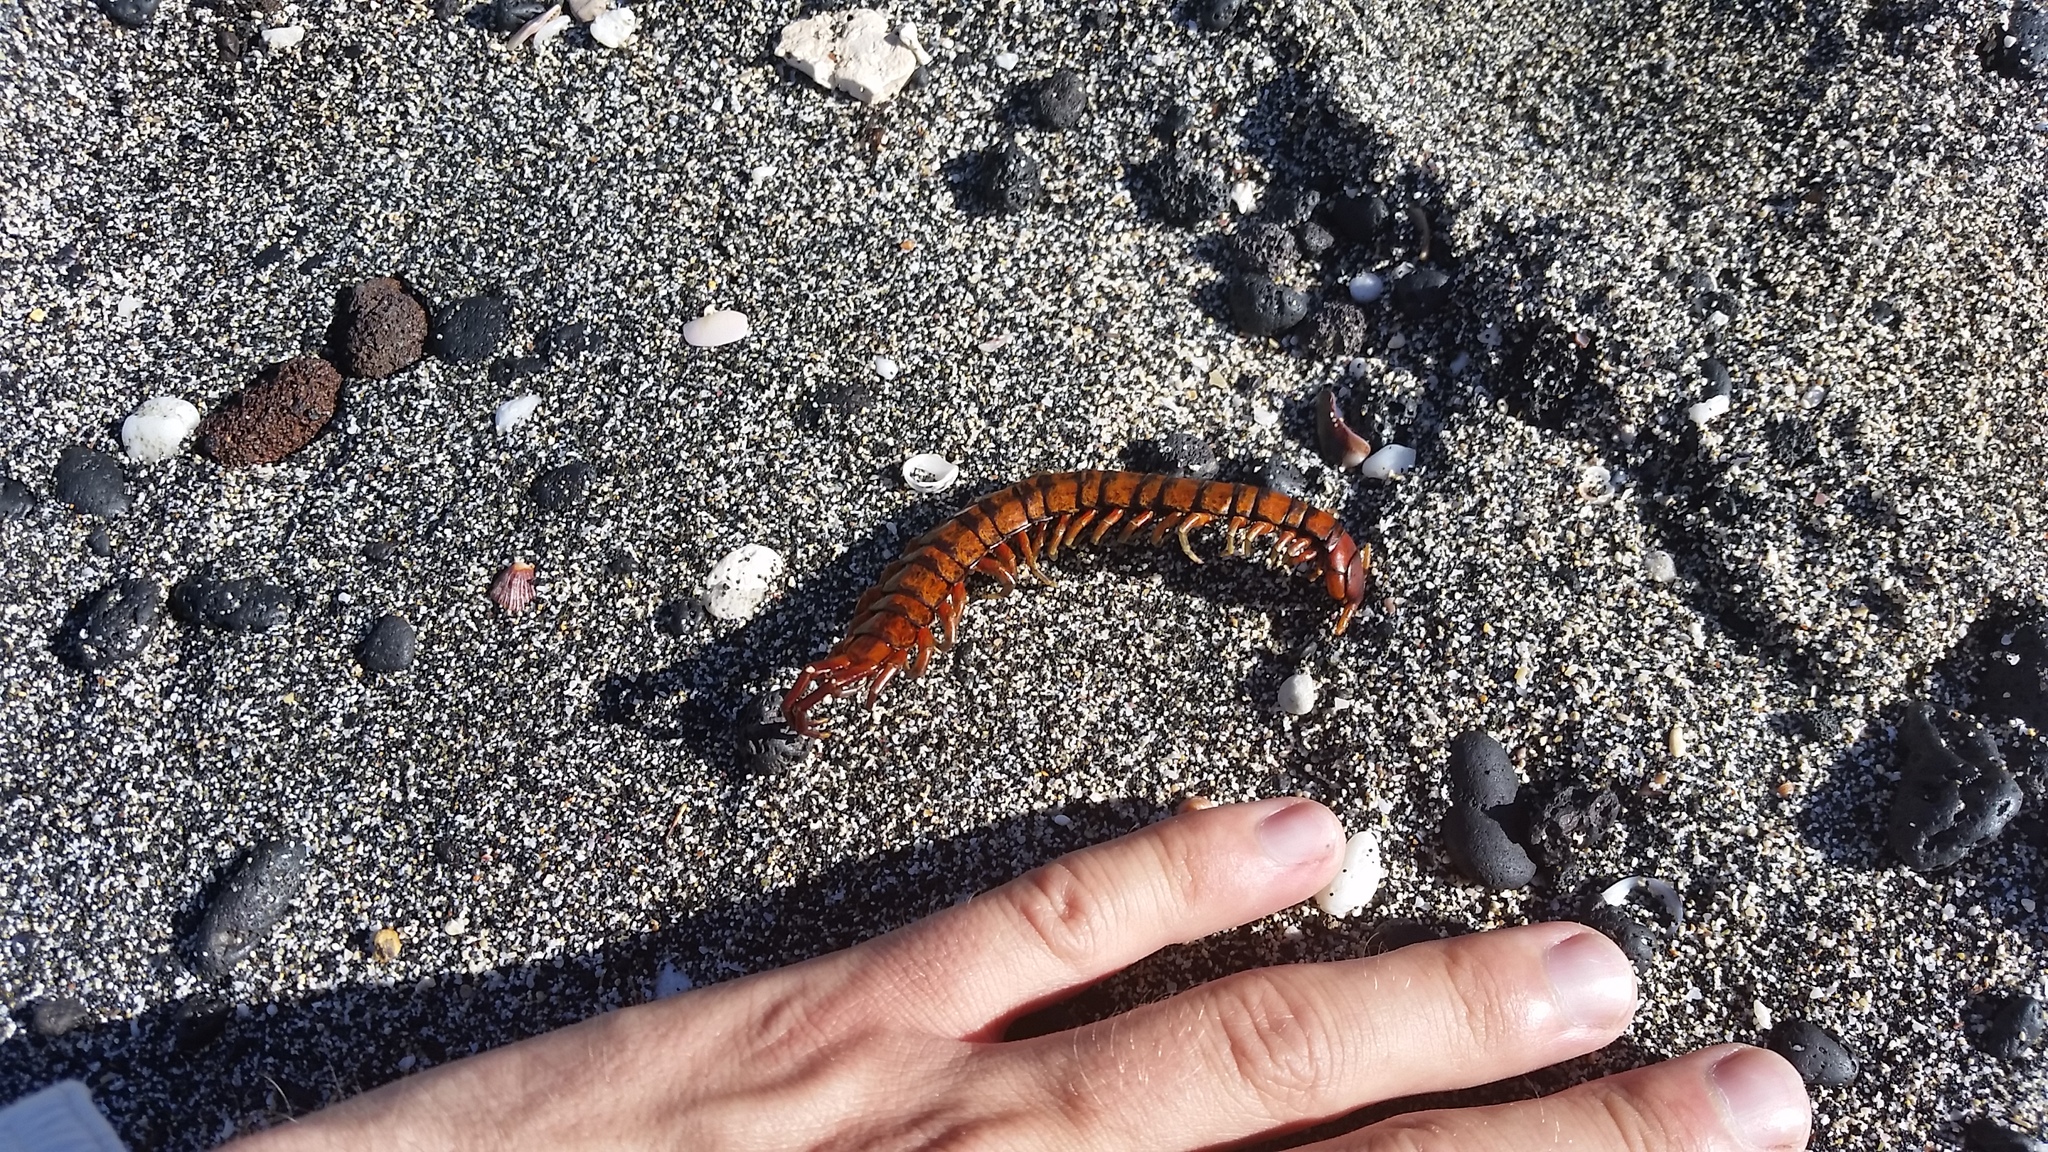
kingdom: Animalia
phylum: Arthropoda
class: Chilopoda
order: Scolopendromorpha
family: Scolopendridae
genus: Scolopendra
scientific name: Scolopendra subspinipes
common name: Centipede
